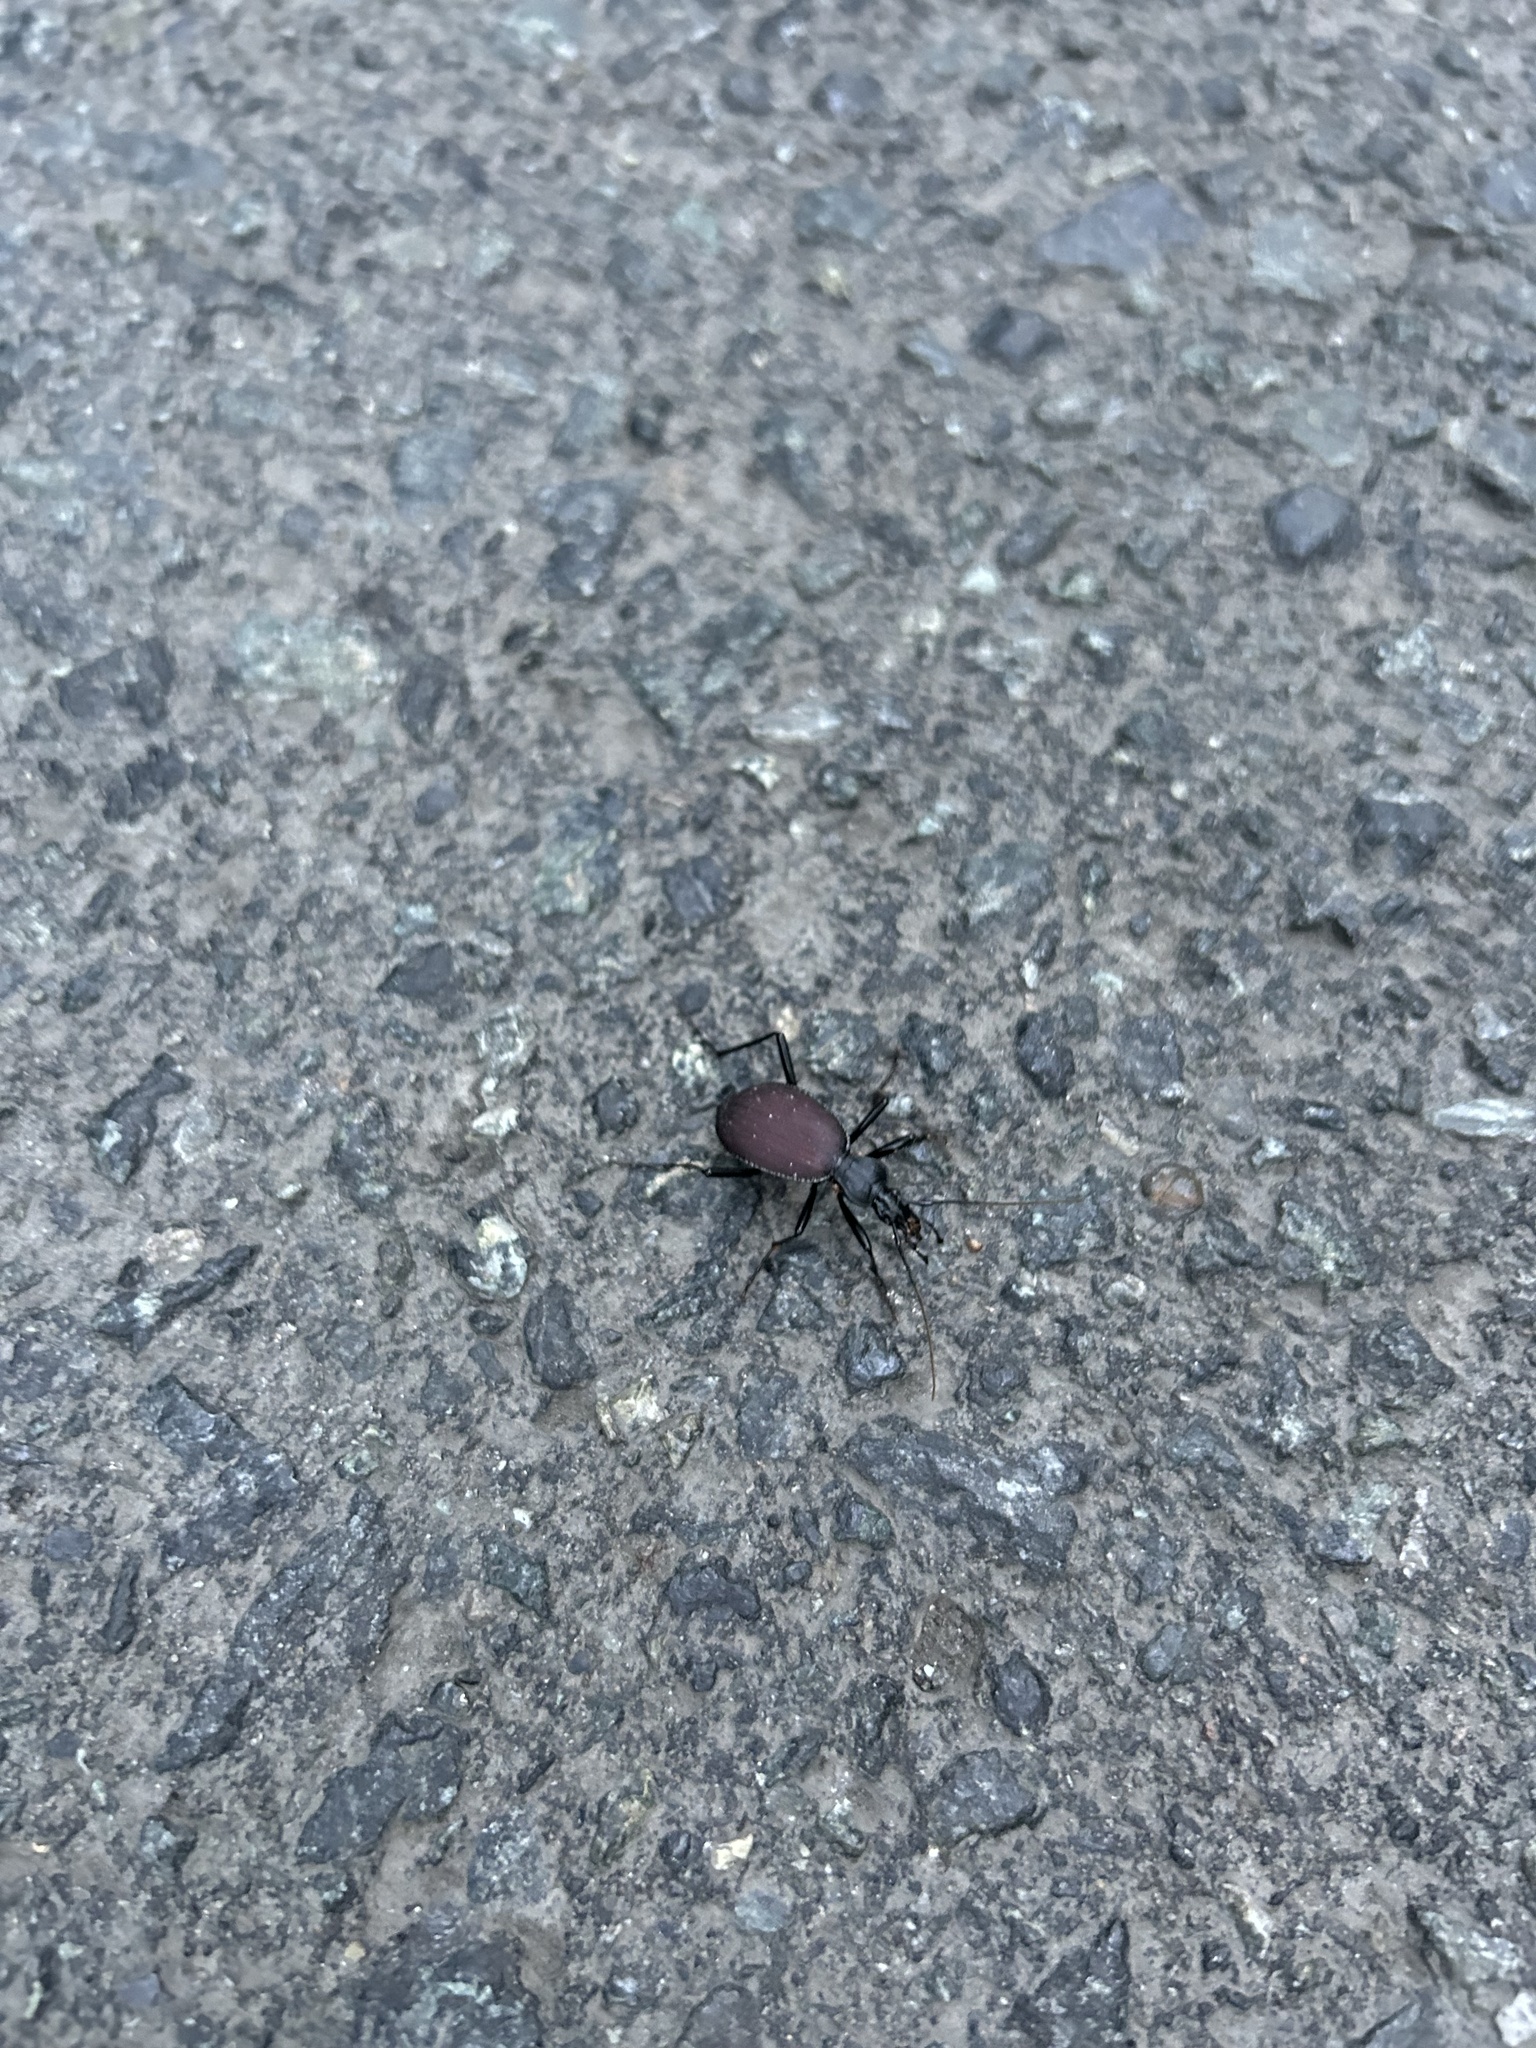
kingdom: Animalia
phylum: Arthropoda
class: Insecta
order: Coleoptera
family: Carabidae
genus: Scaphinotus
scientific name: Scaphinotus angusticollis
